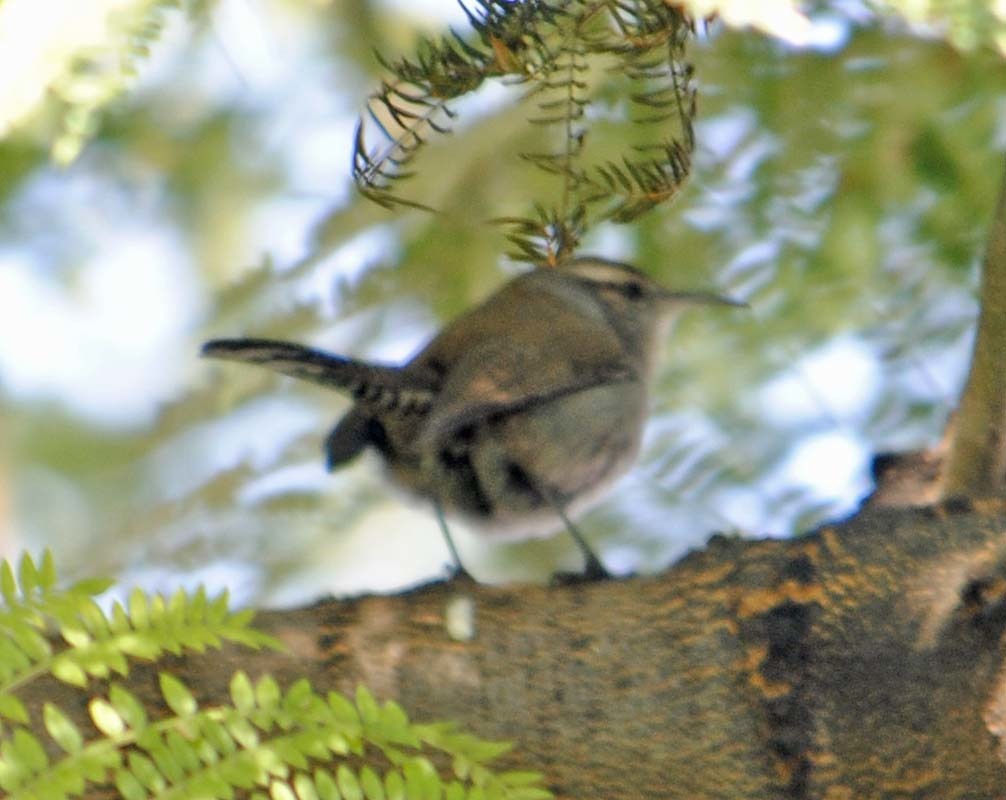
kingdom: Animalia
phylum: Chordata
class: Aves
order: Passeriformes
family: Troglodytidae
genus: Thryomanes
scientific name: Thryomanes bewickii
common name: Bewick's wren
